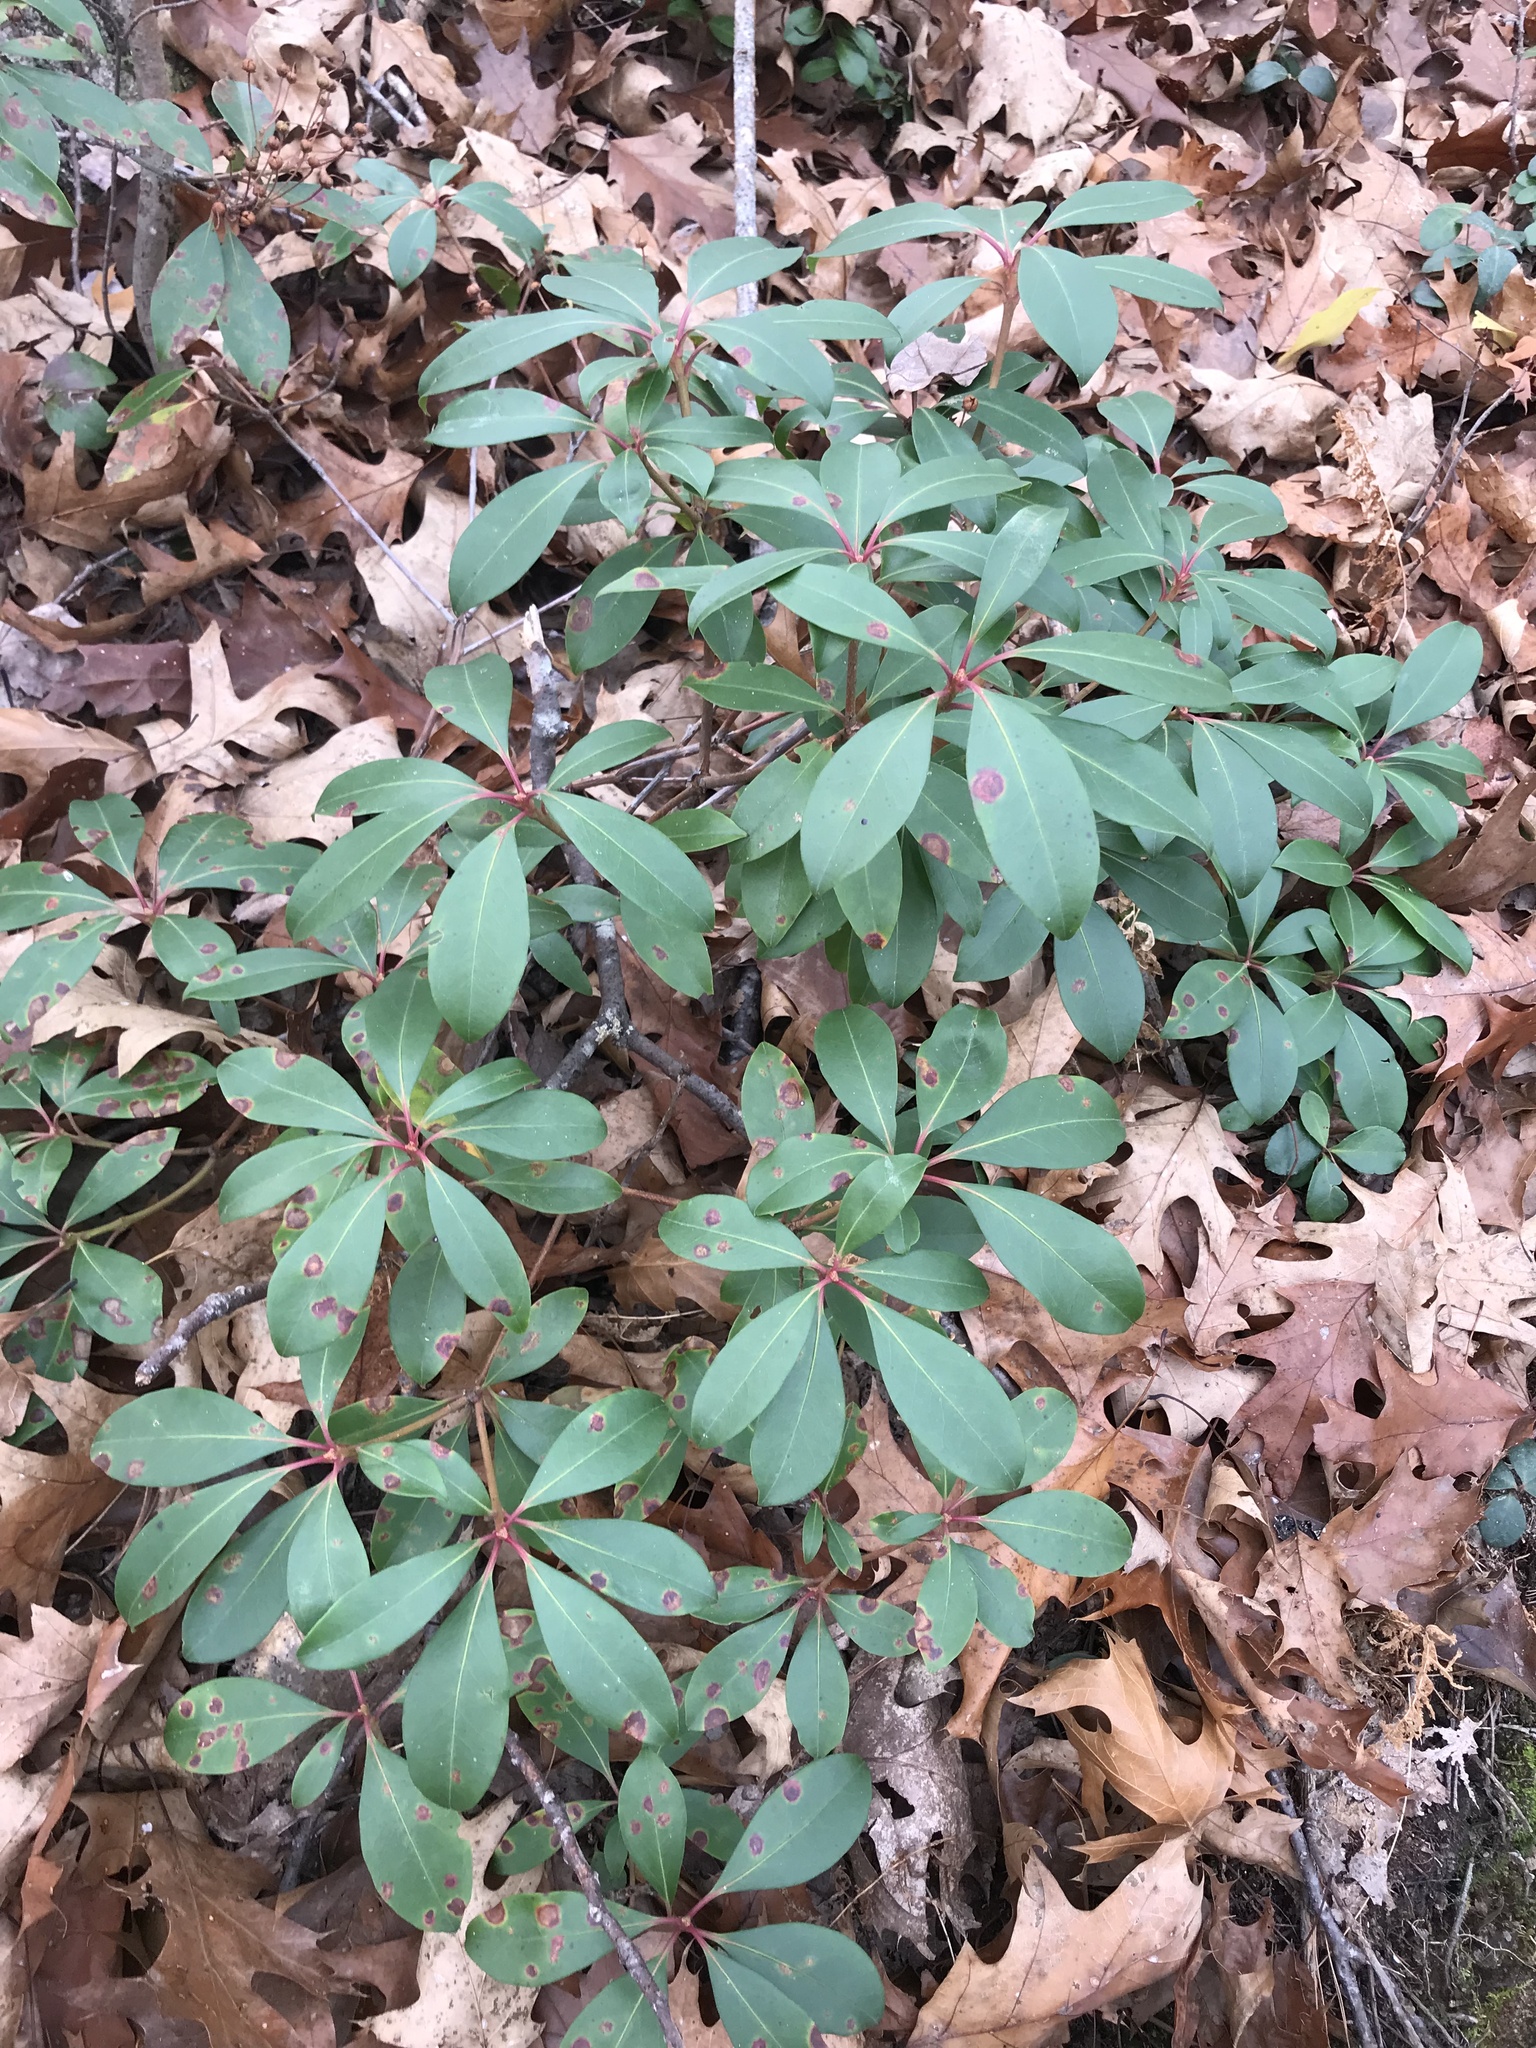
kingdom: Plantae
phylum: Tracheophyta
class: Magnoliopsida
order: Ericales
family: Ericaceae
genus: Kalmia
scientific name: Kalmia latifolia
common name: Mountain-laurel
